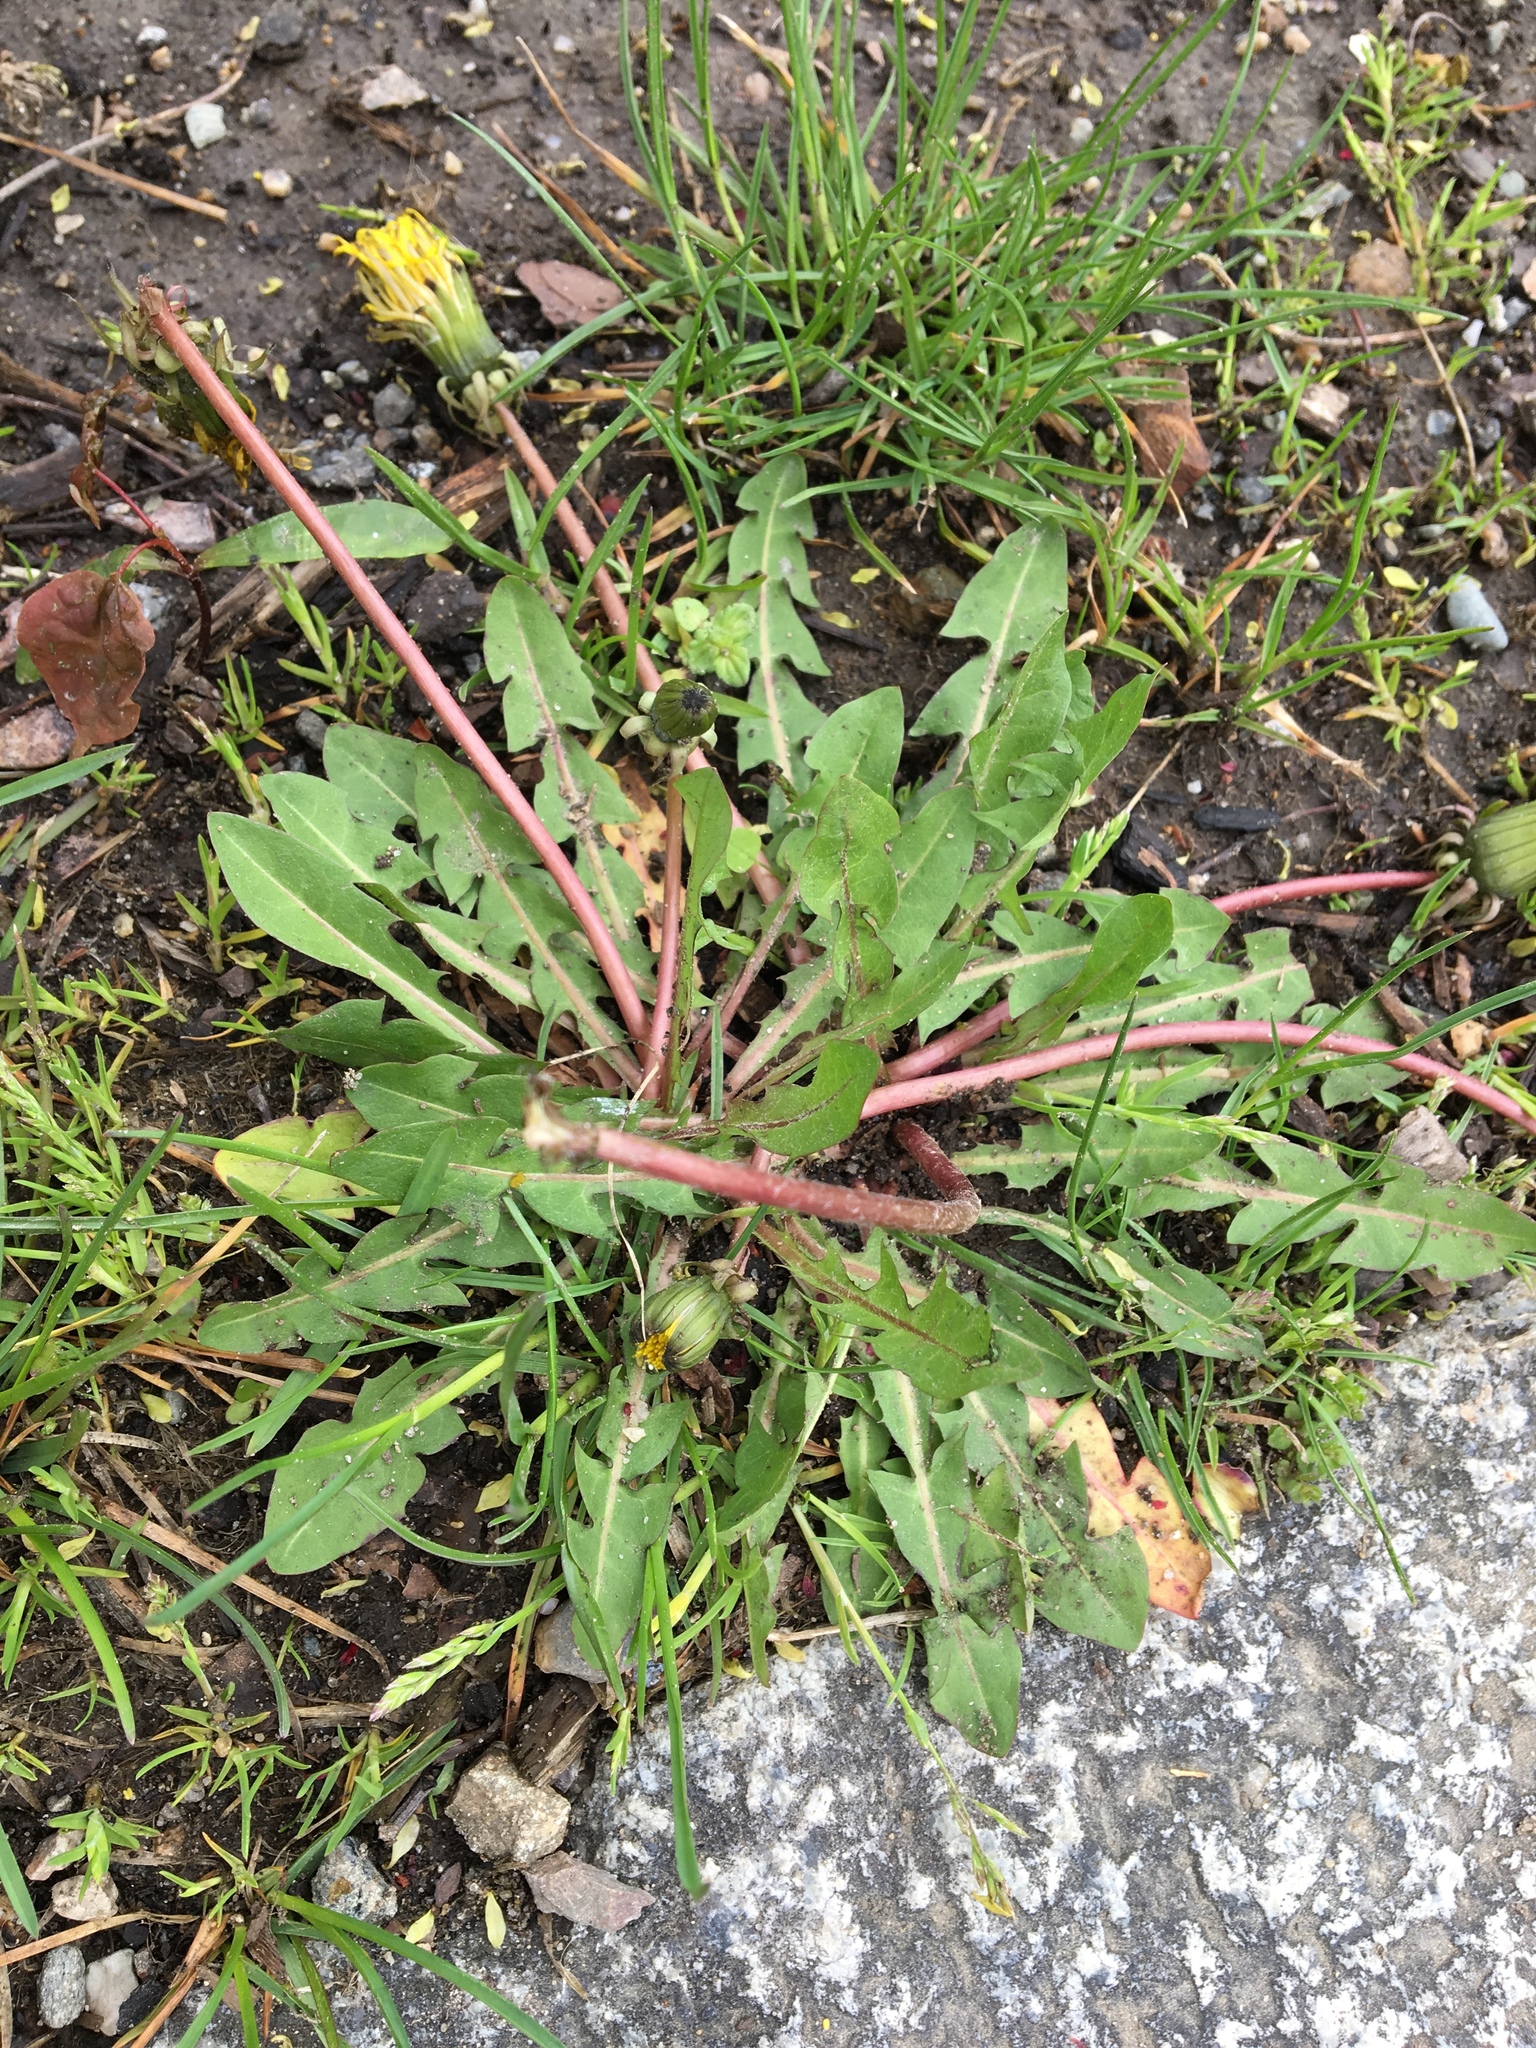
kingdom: Plantae
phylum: Tracheophyta
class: Magnoliopsida
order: Asterales
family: Asteraceae
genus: Taraxacum
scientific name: Taraxacum officinale
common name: Common dandelion
